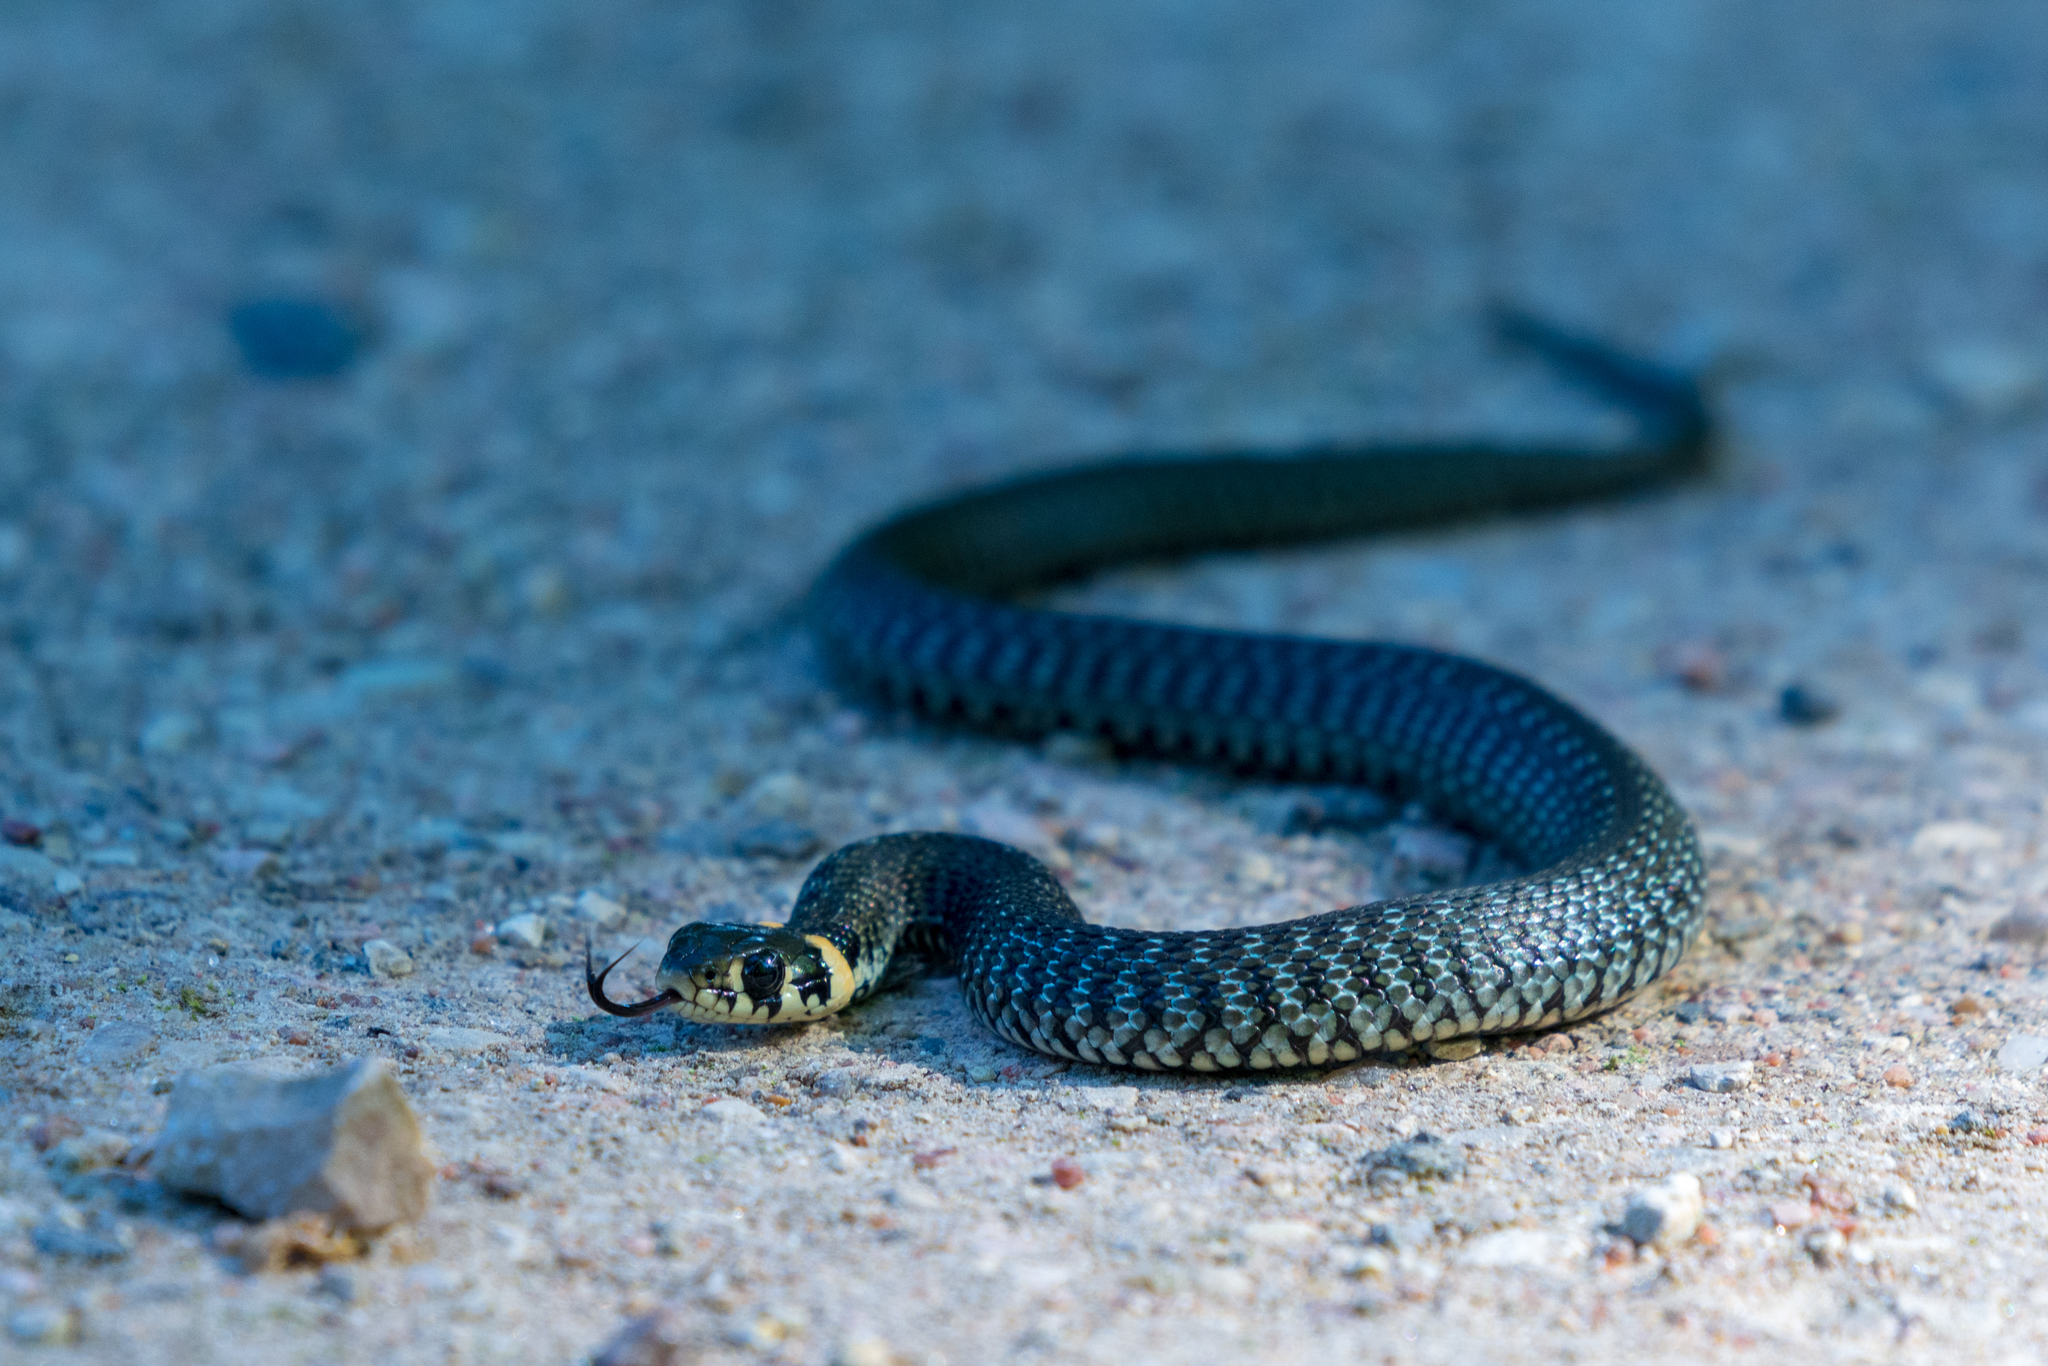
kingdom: Animalia
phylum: Chordata
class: Squamata
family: Colubridae
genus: Natrix
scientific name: Natrix natrix
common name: Grass snake
